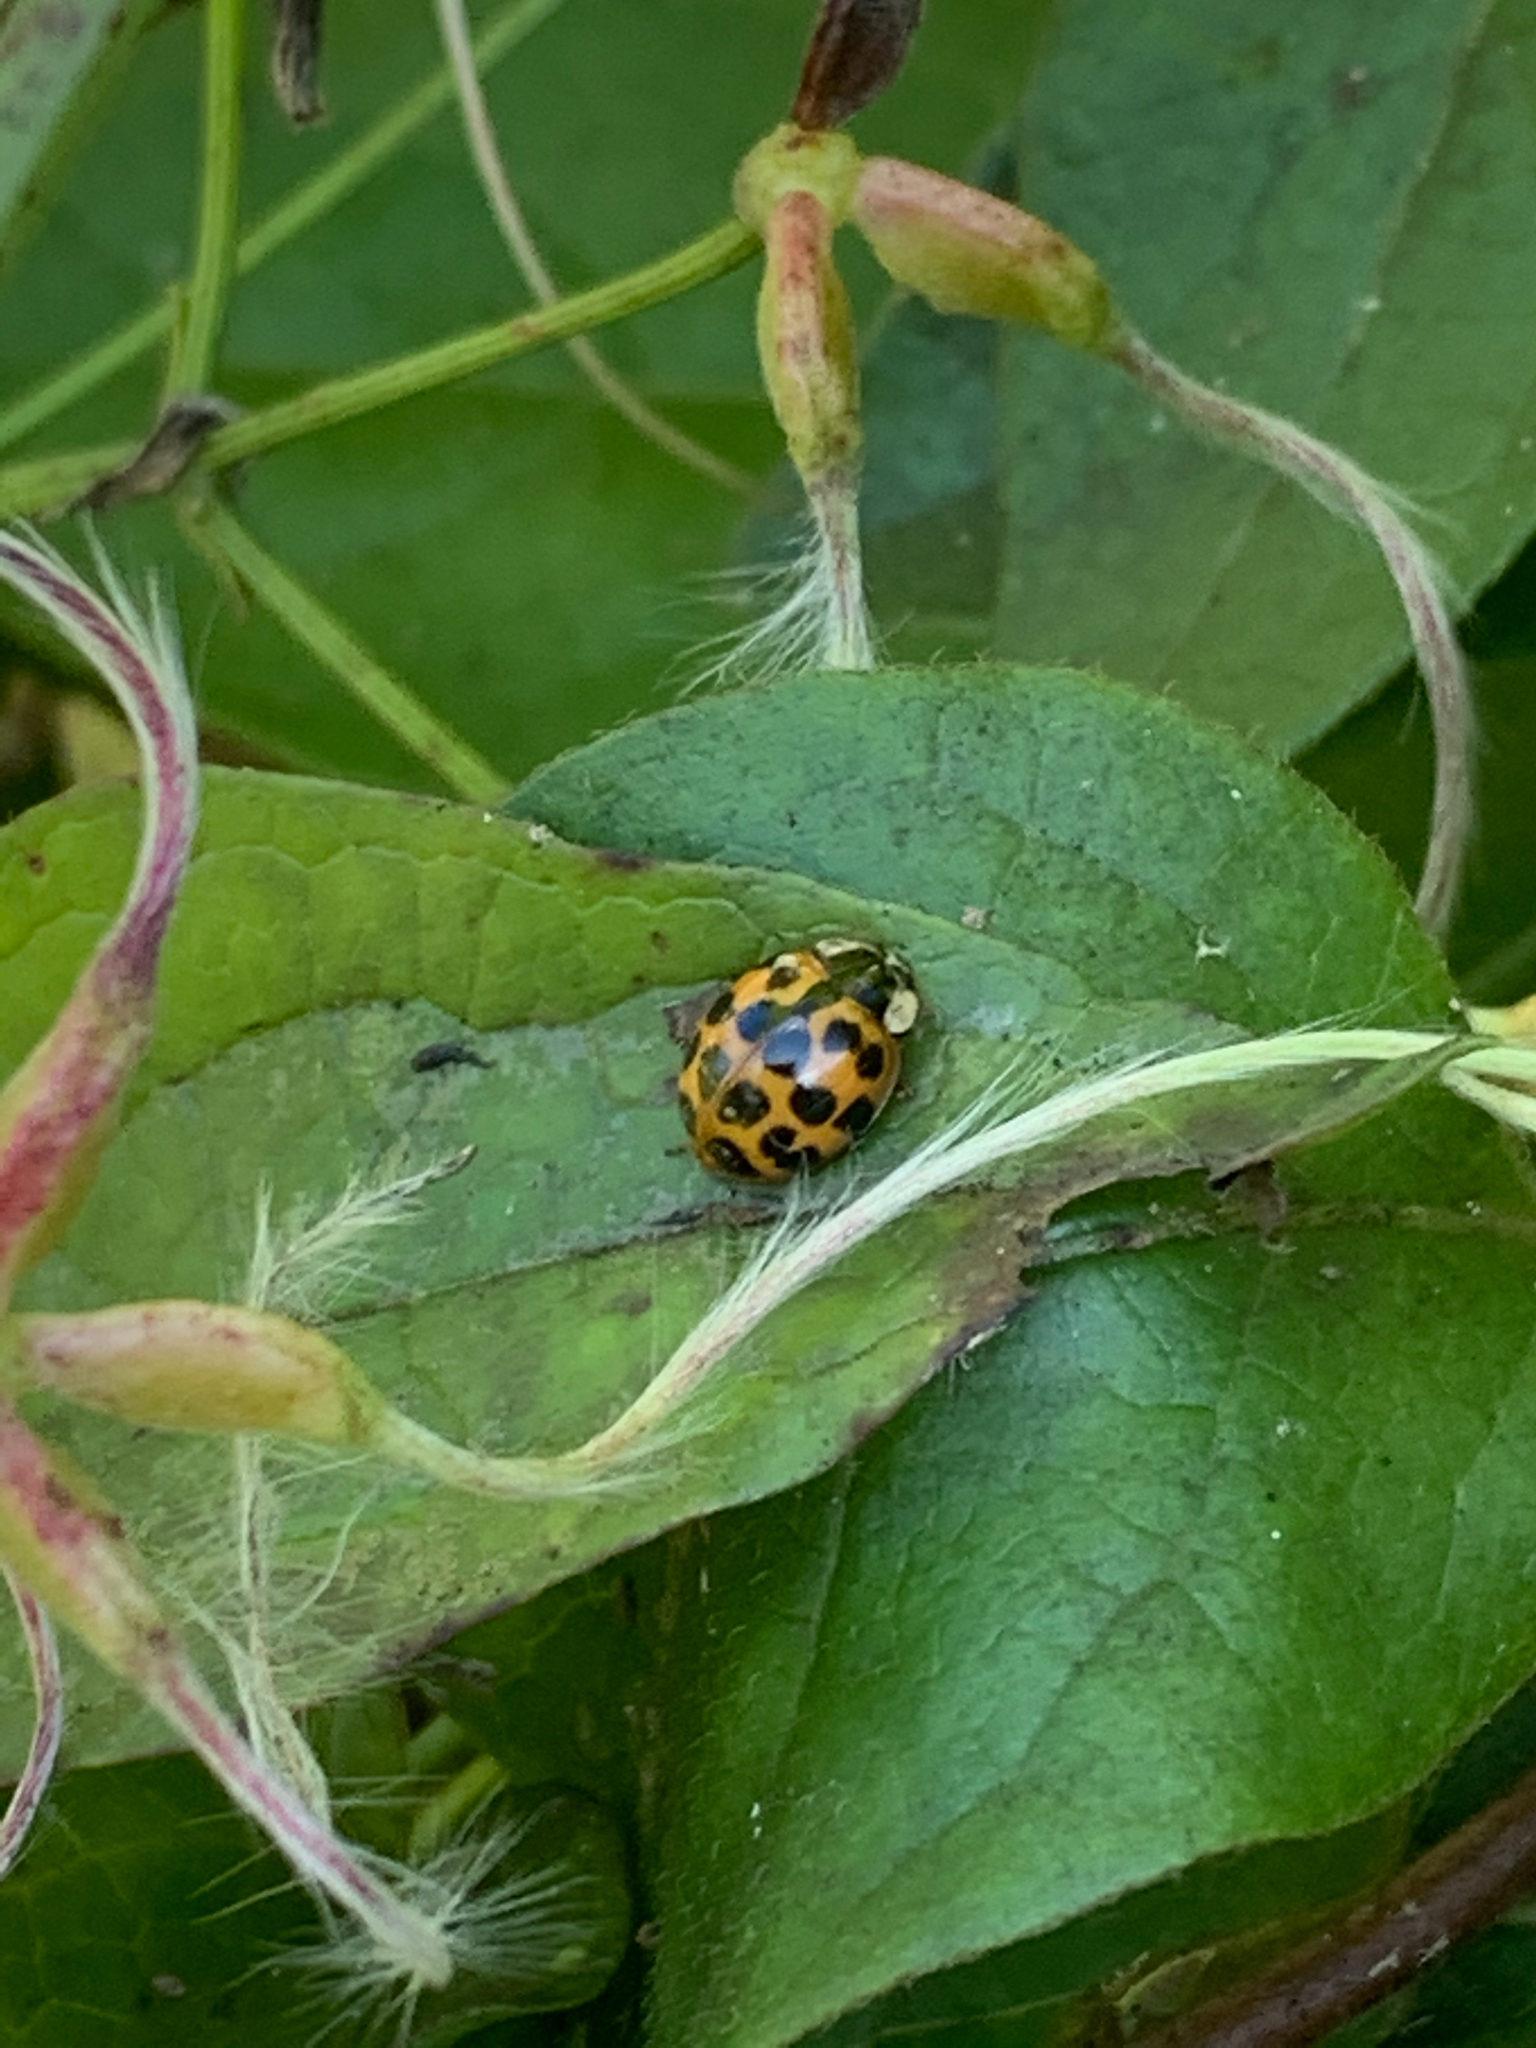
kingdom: Animalia
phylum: Arthropoda
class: Insecta
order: Coleoptera
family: Coccinellidae
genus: Harmonia
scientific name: Harmonia axyridis
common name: Harlequin ladybird
